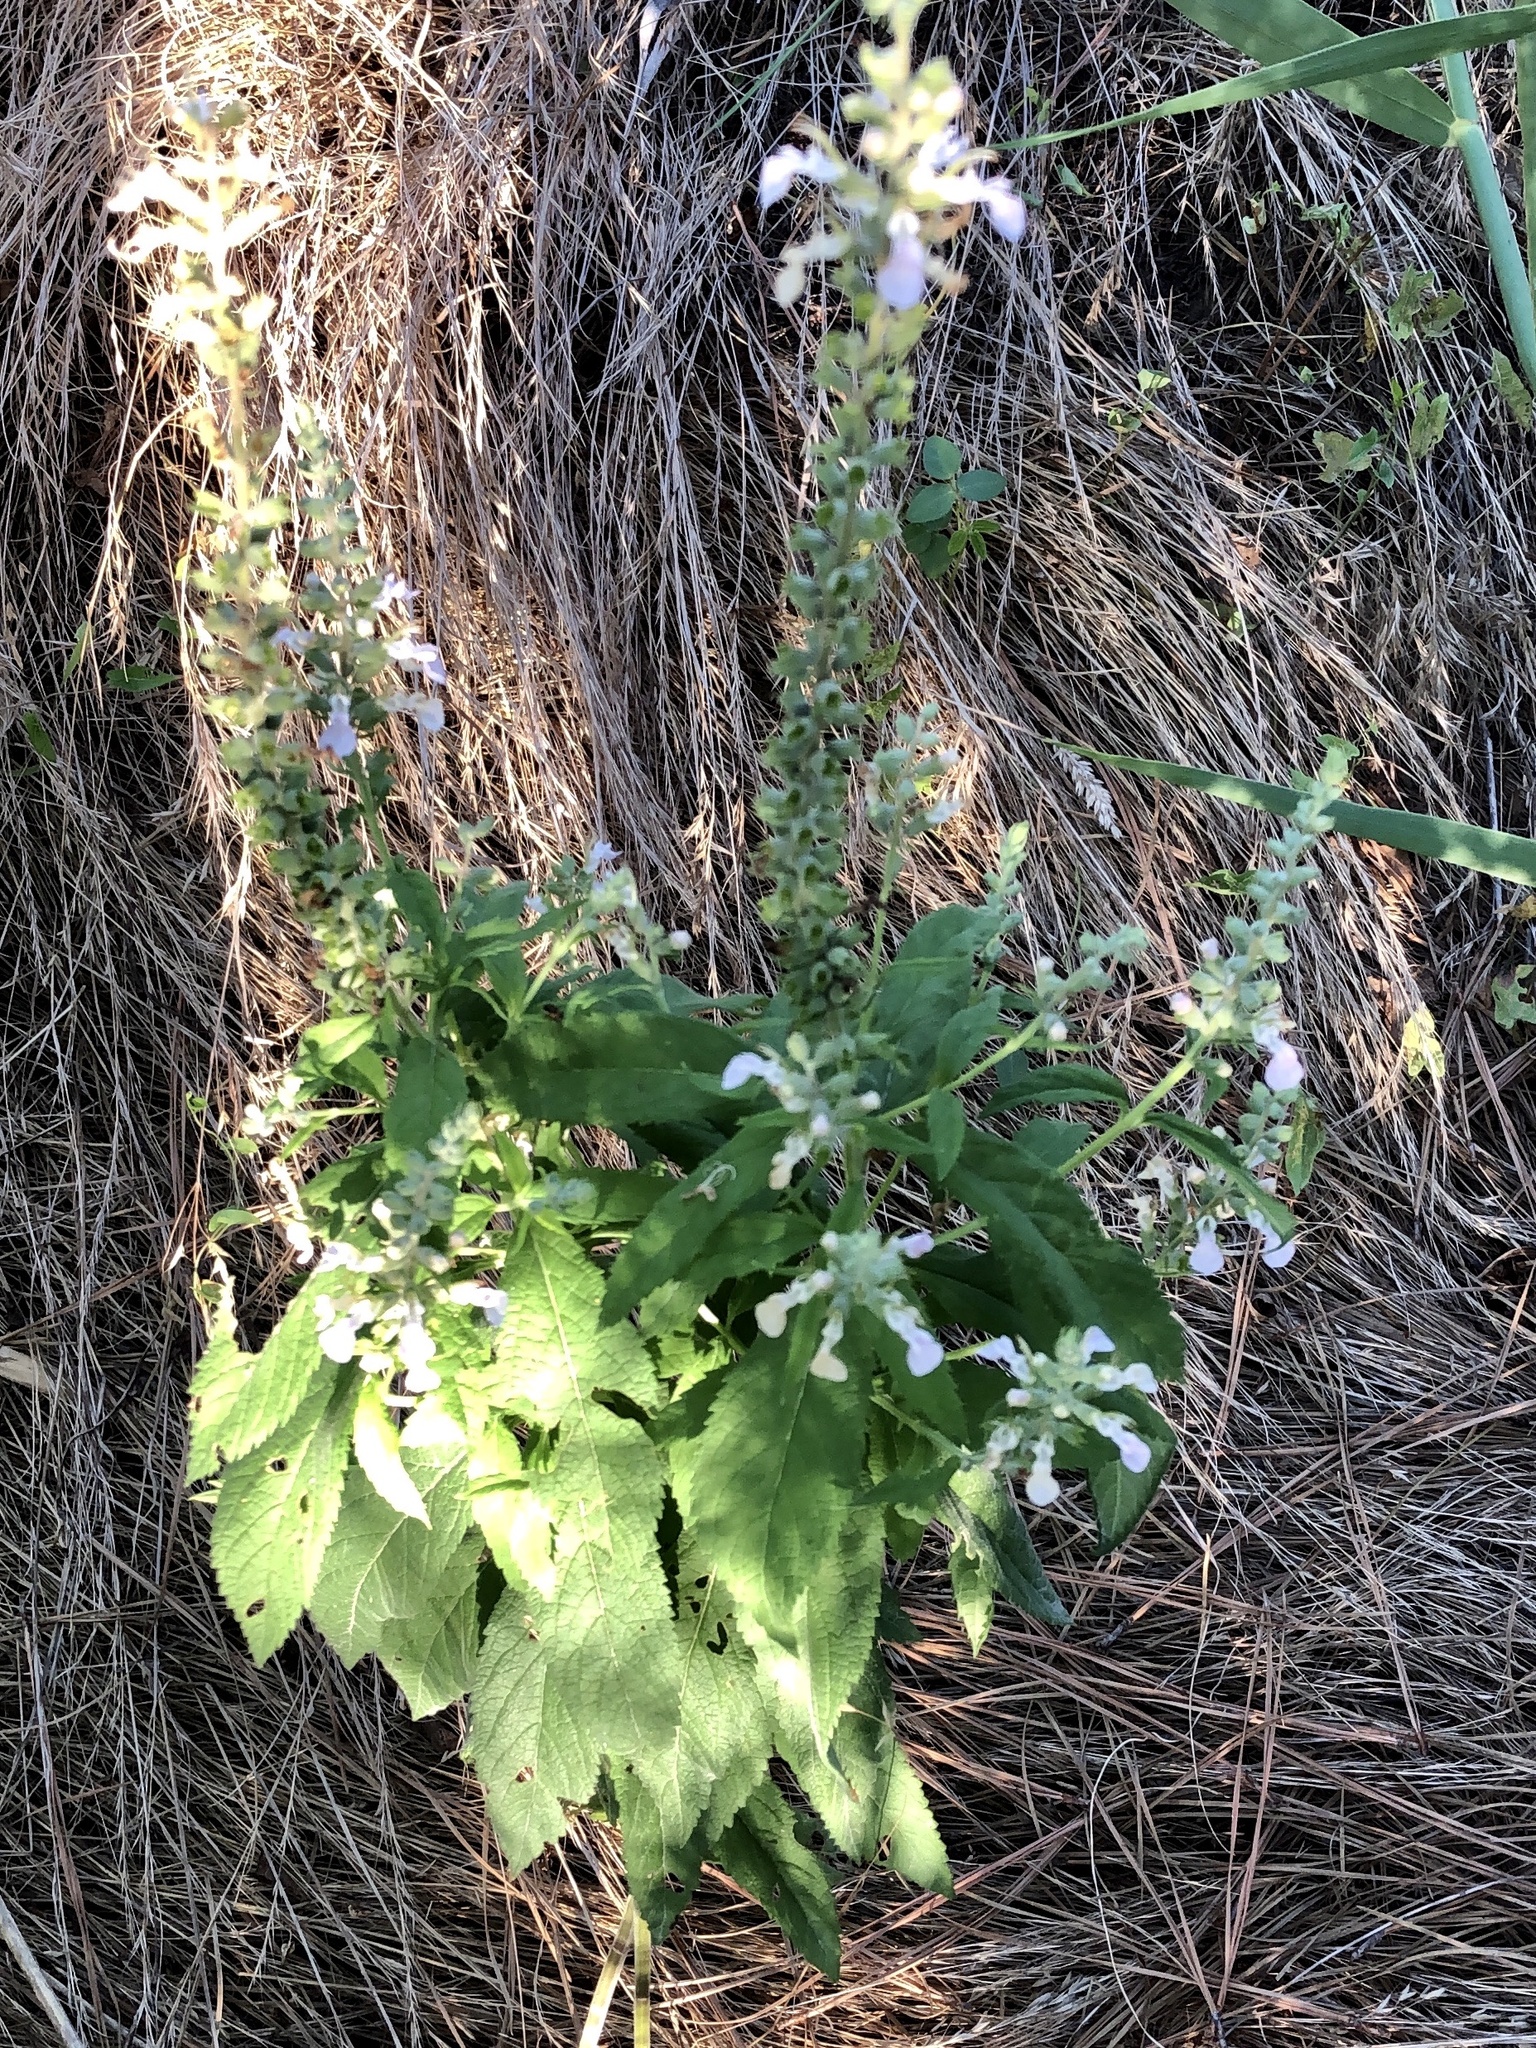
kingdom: Plantae
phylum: Tracheophyta
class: Magnoliopsida
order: Lamiales
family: Lamiaceae
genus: Teucrium
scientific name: Teucrium canadense
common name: American germander
